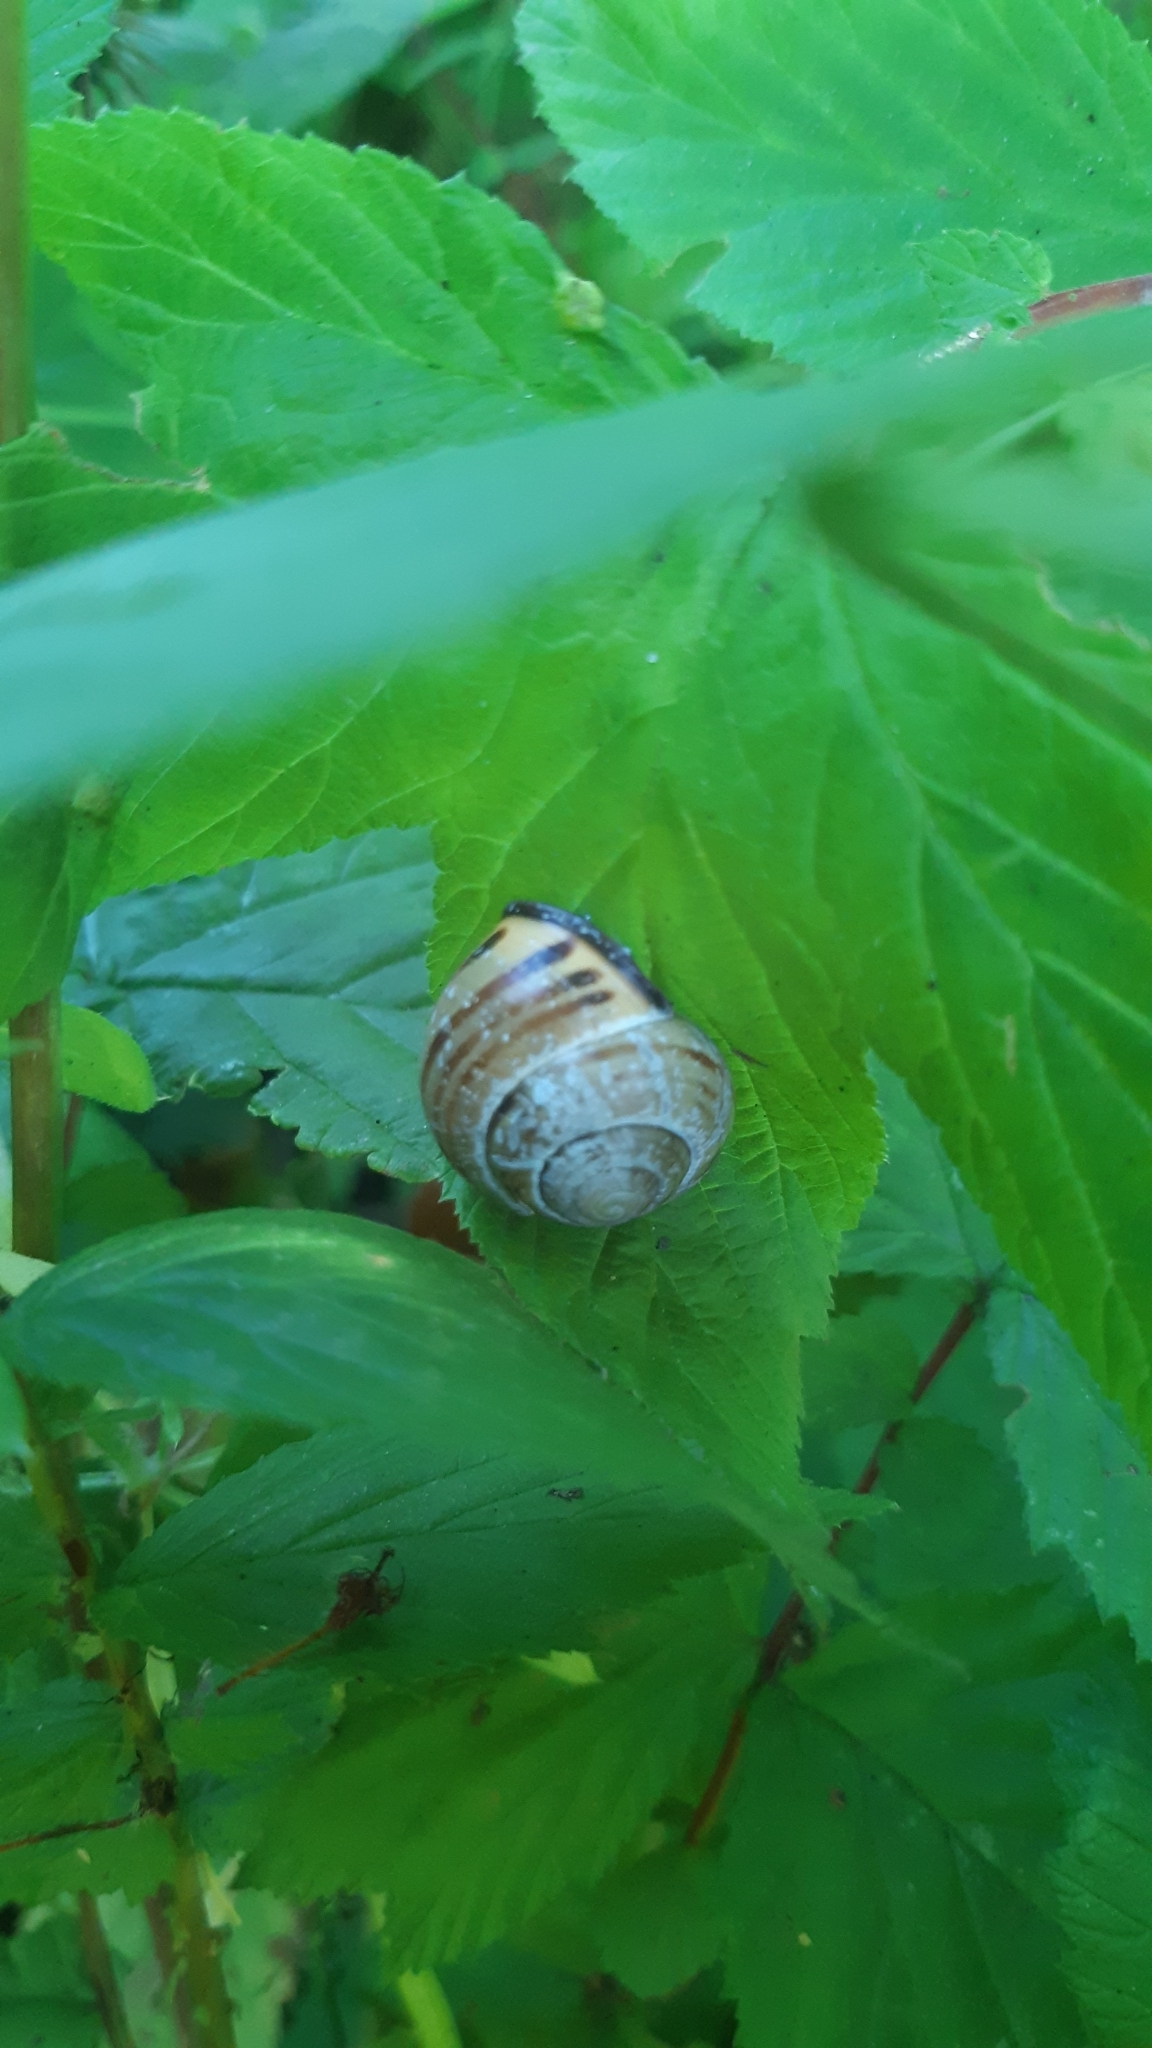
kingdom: Animalia
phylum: Mollusca
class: Gastropoda
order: Stylommatophora
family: Helicidae
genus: Cepaea
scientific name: Cepaea nemoralis
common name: Grovesnail
